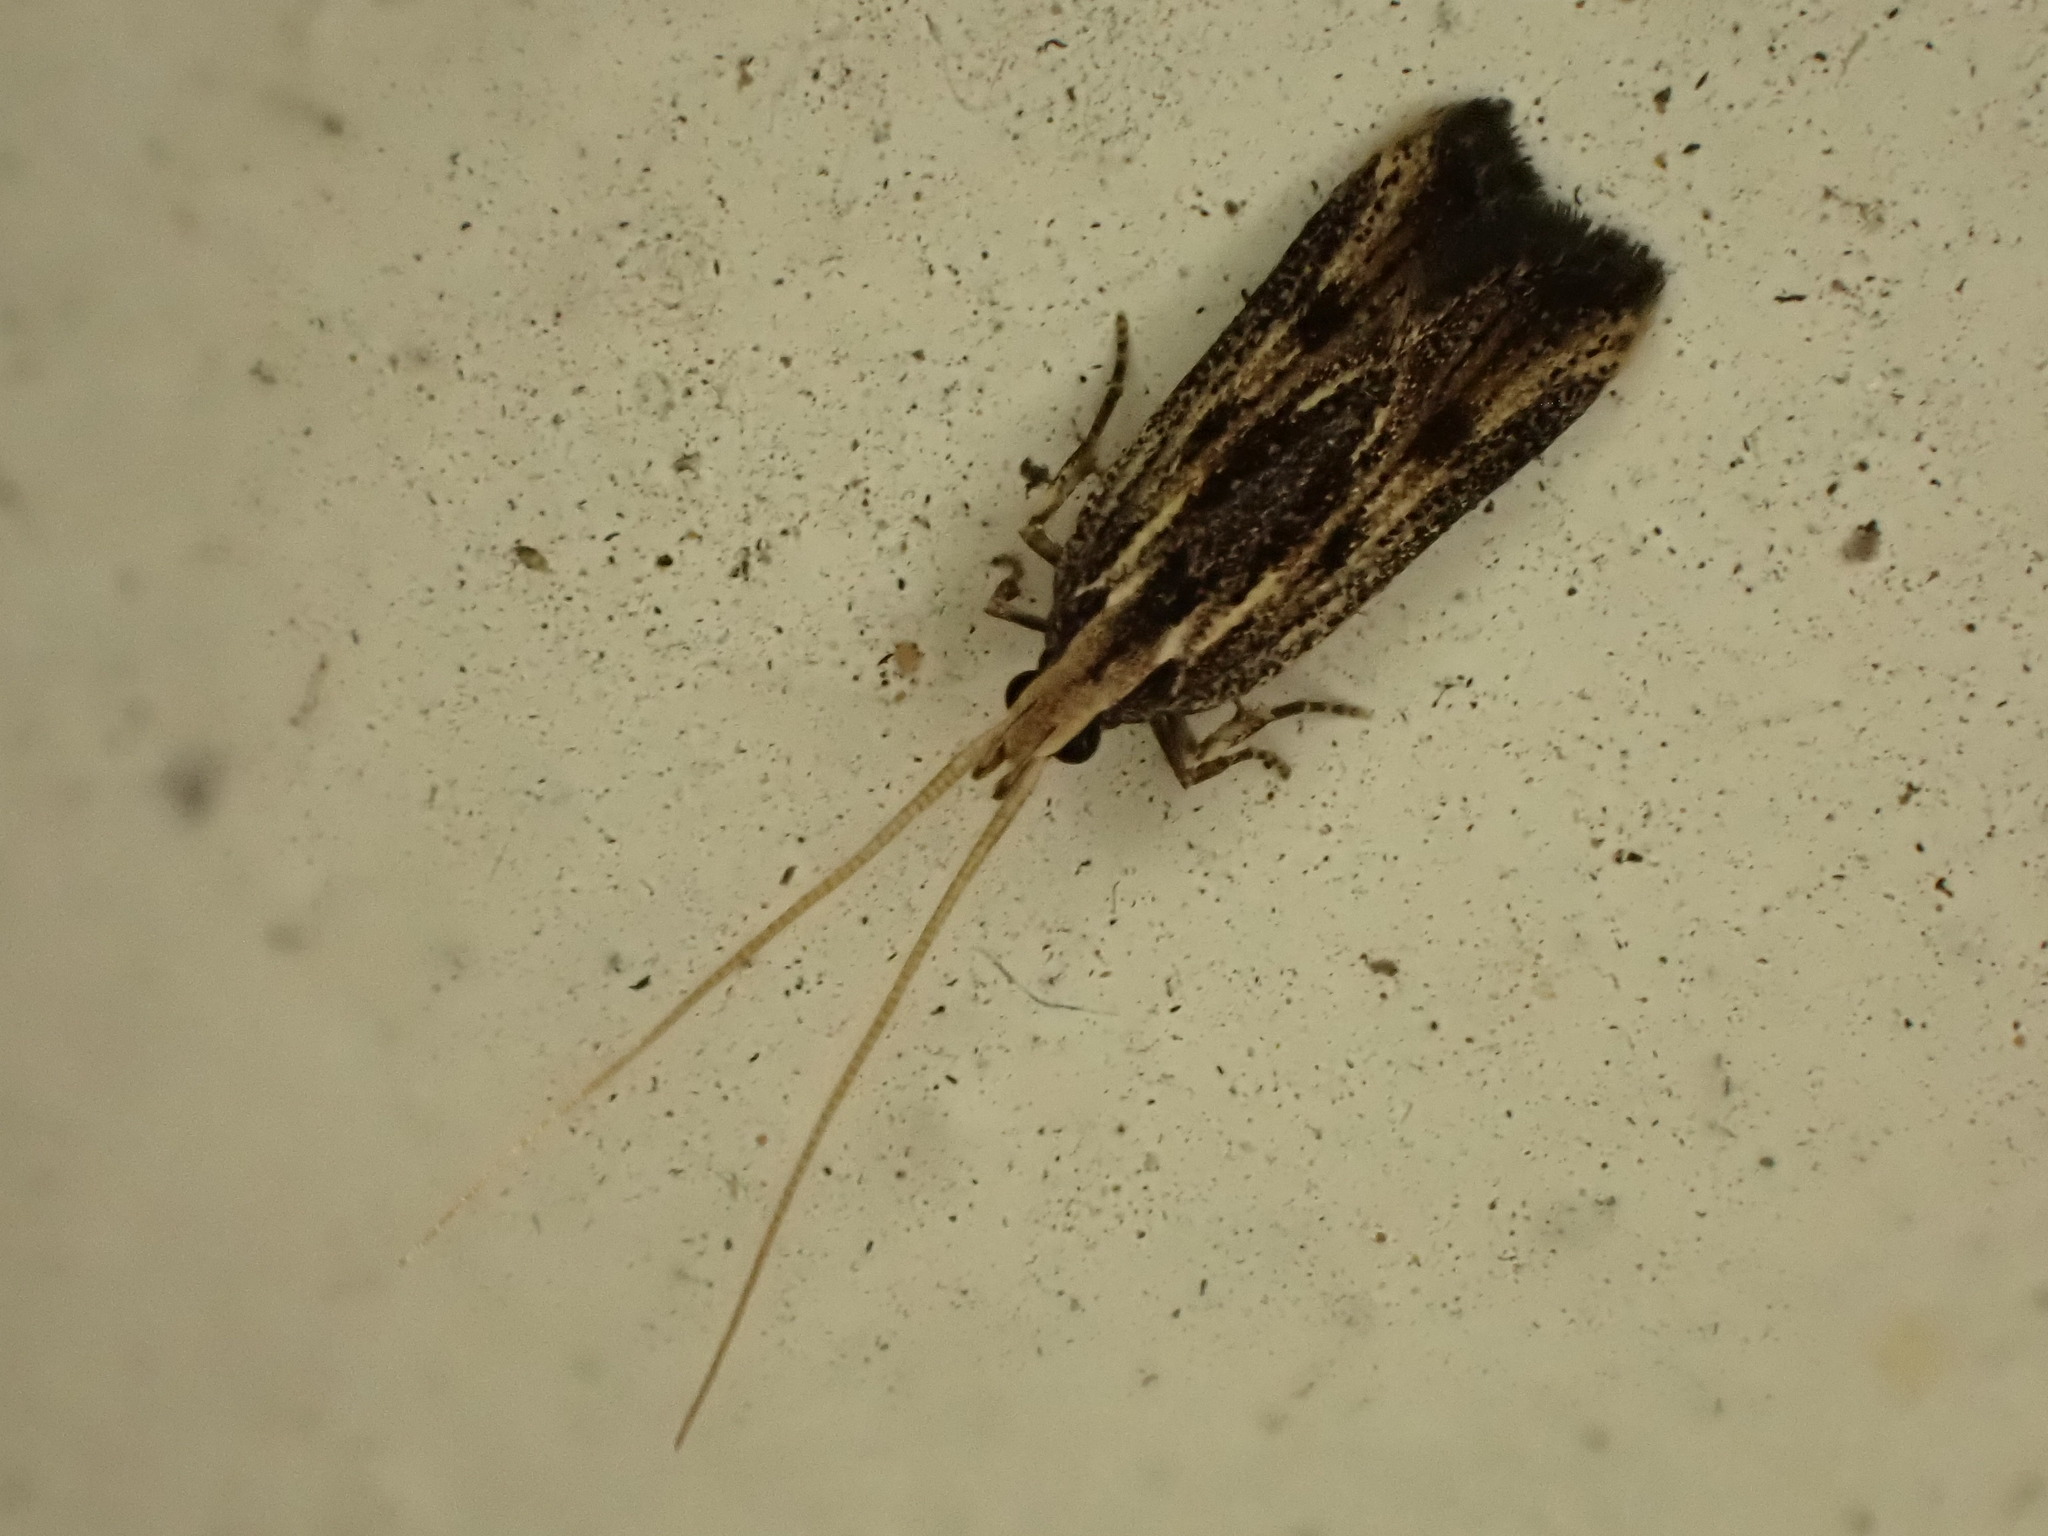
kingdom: Animalia
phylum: Arthropoda
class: Insecta
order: Lepidoptera
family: Lecithoceridae
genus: Sarisophora
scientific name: Sarisophora leucoscia
